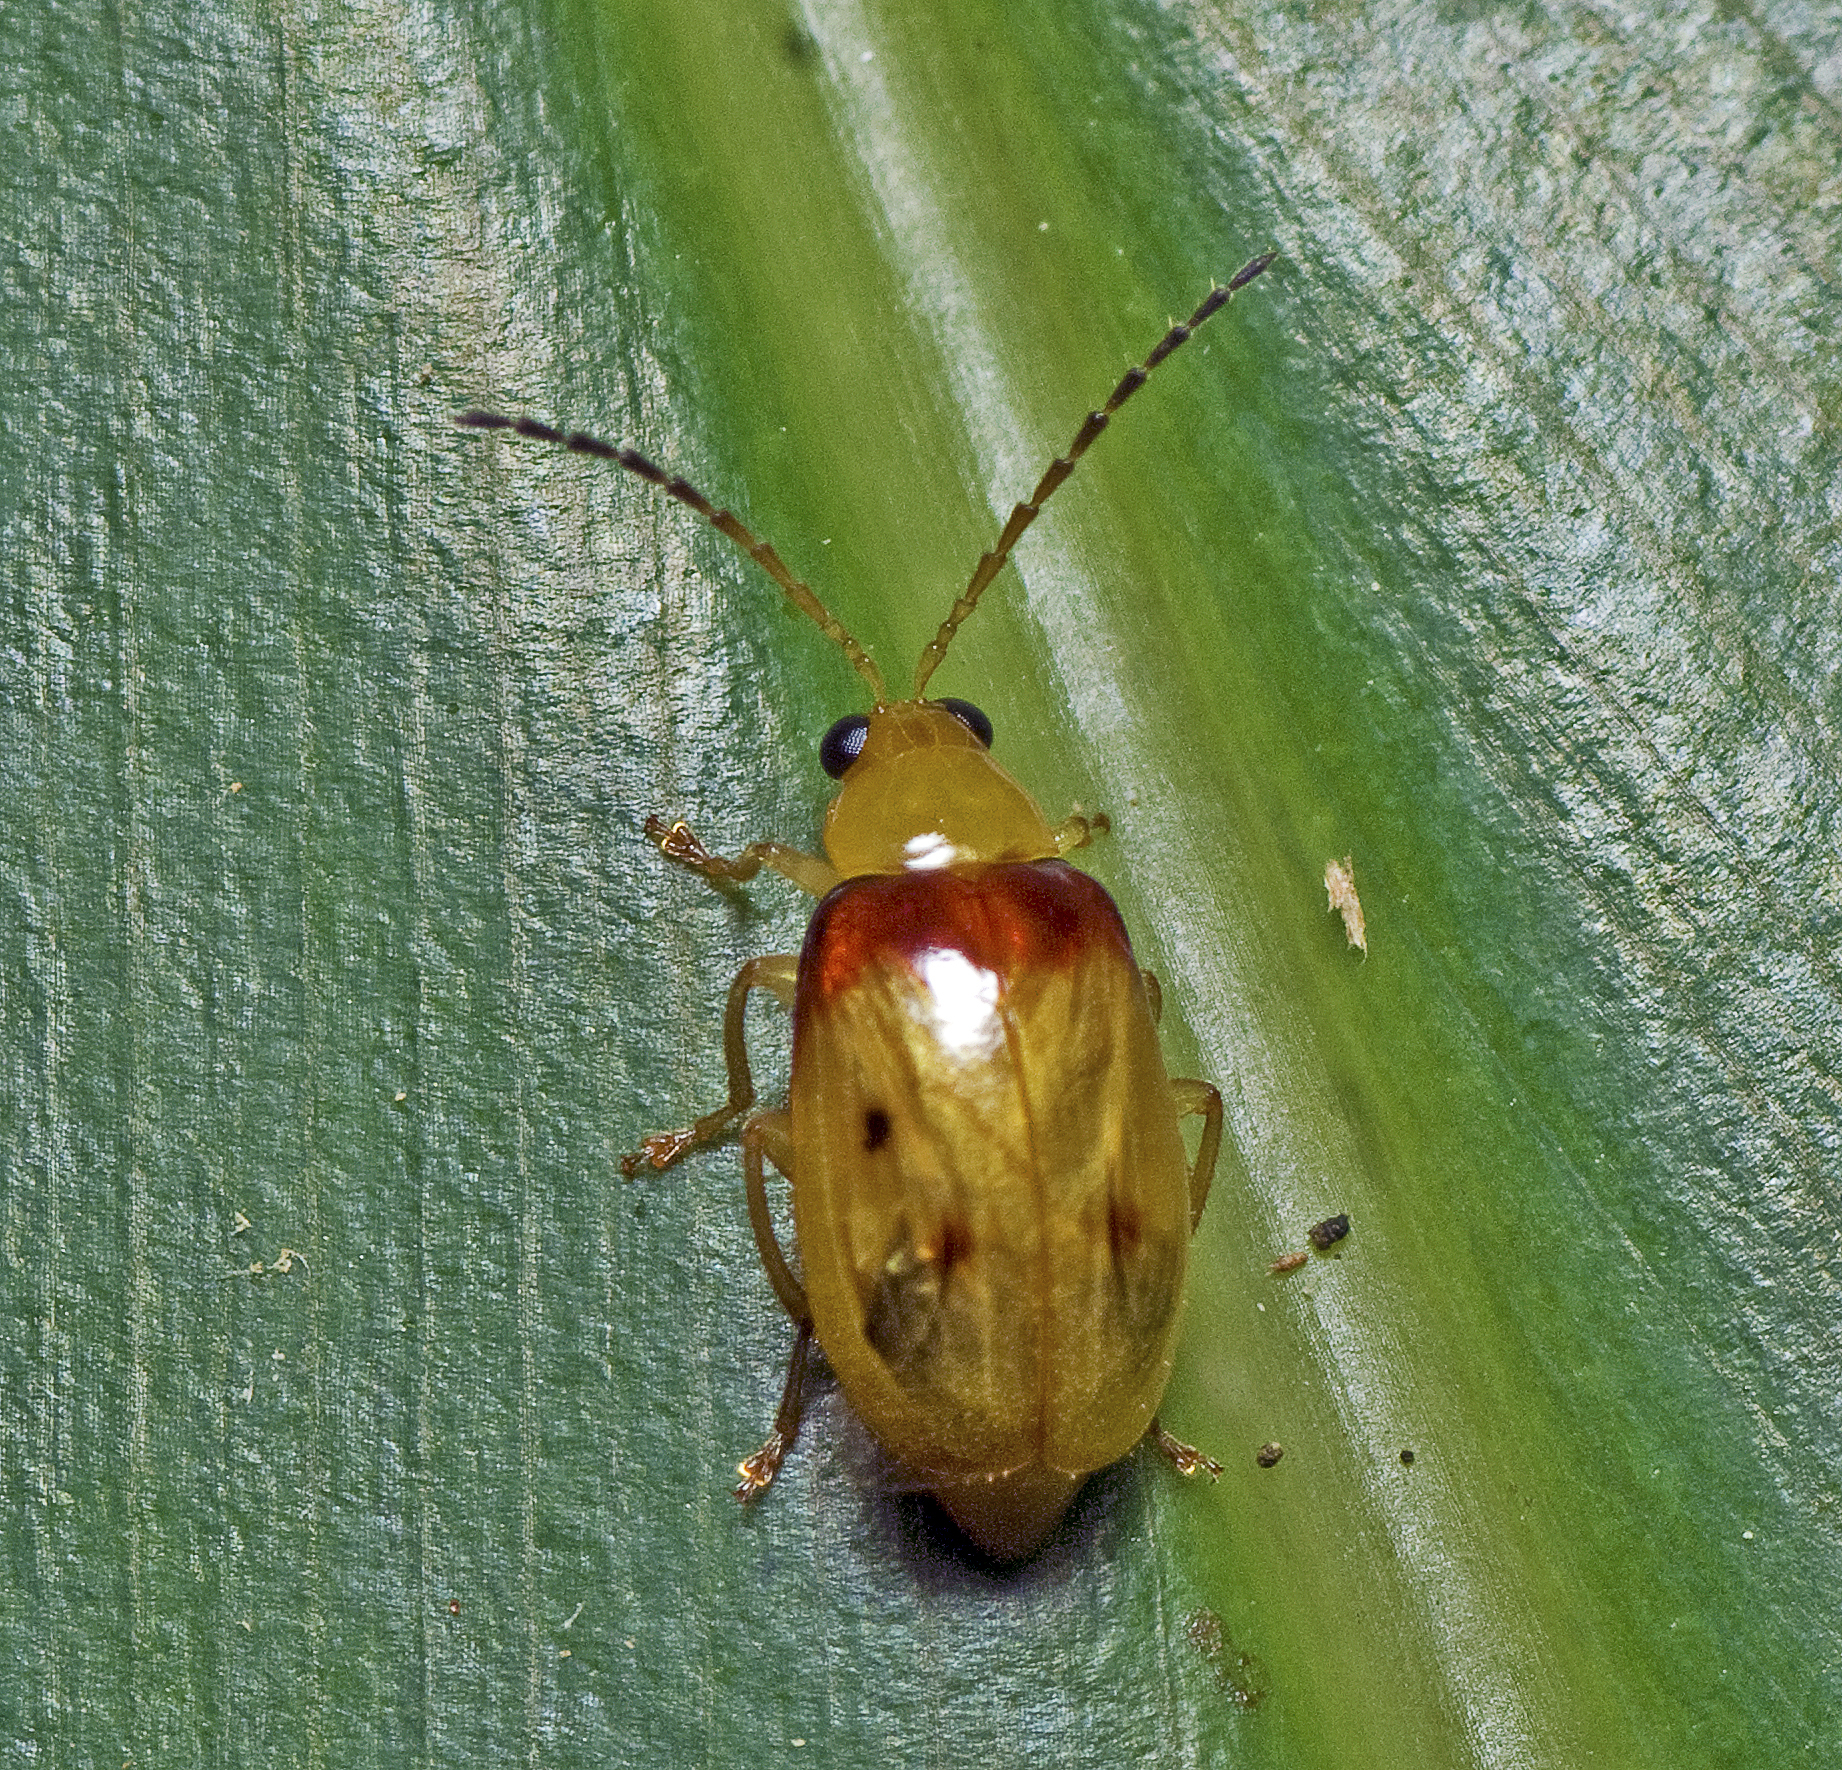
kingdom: Animalia
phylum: Arthropoda
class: Insecta
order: Coleoptera
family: Chrysomelidae
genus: Monolepta
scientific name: Monolepta
